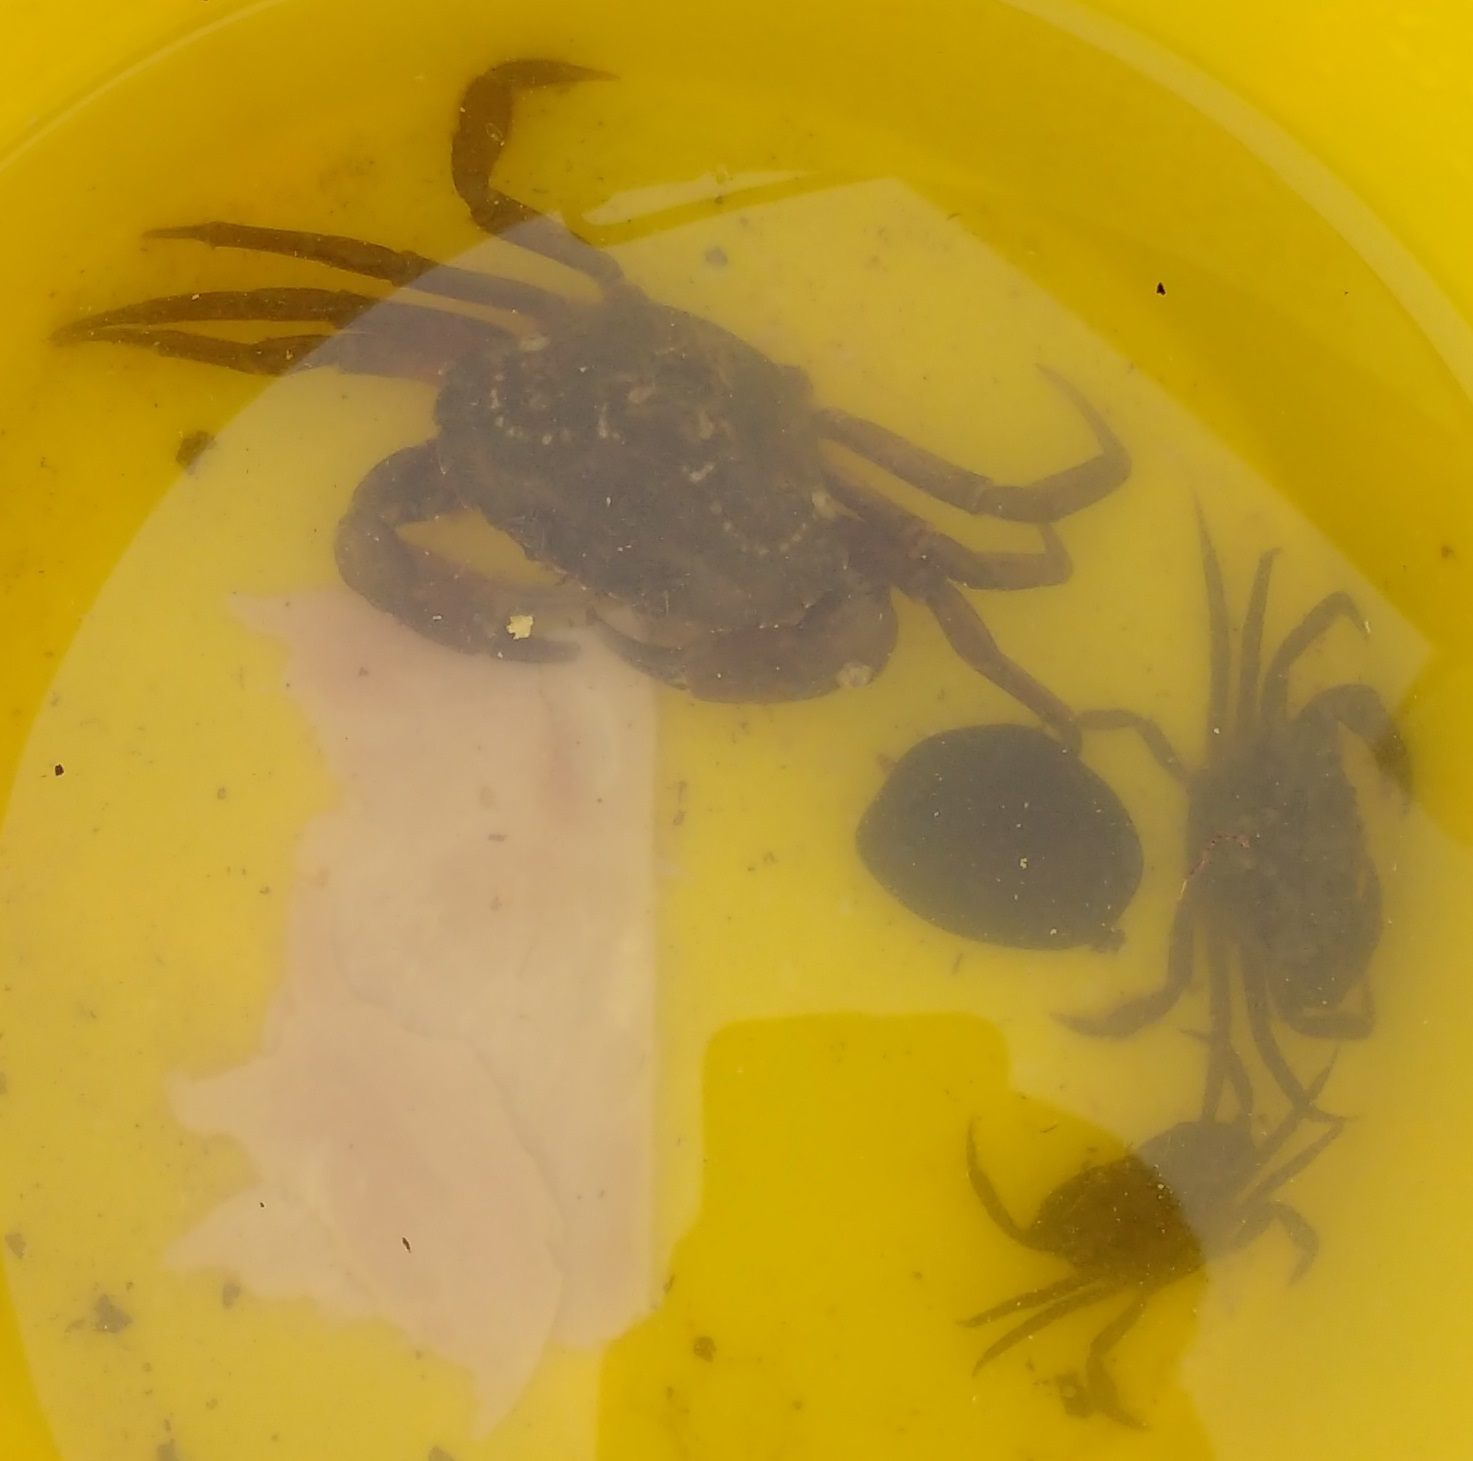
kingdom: Animalia
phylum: Arthropoda
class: Malacostraca
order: Decapoda
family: Carcinidae
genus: Carcinus
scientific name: Carcinus maenas
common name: European green crab
